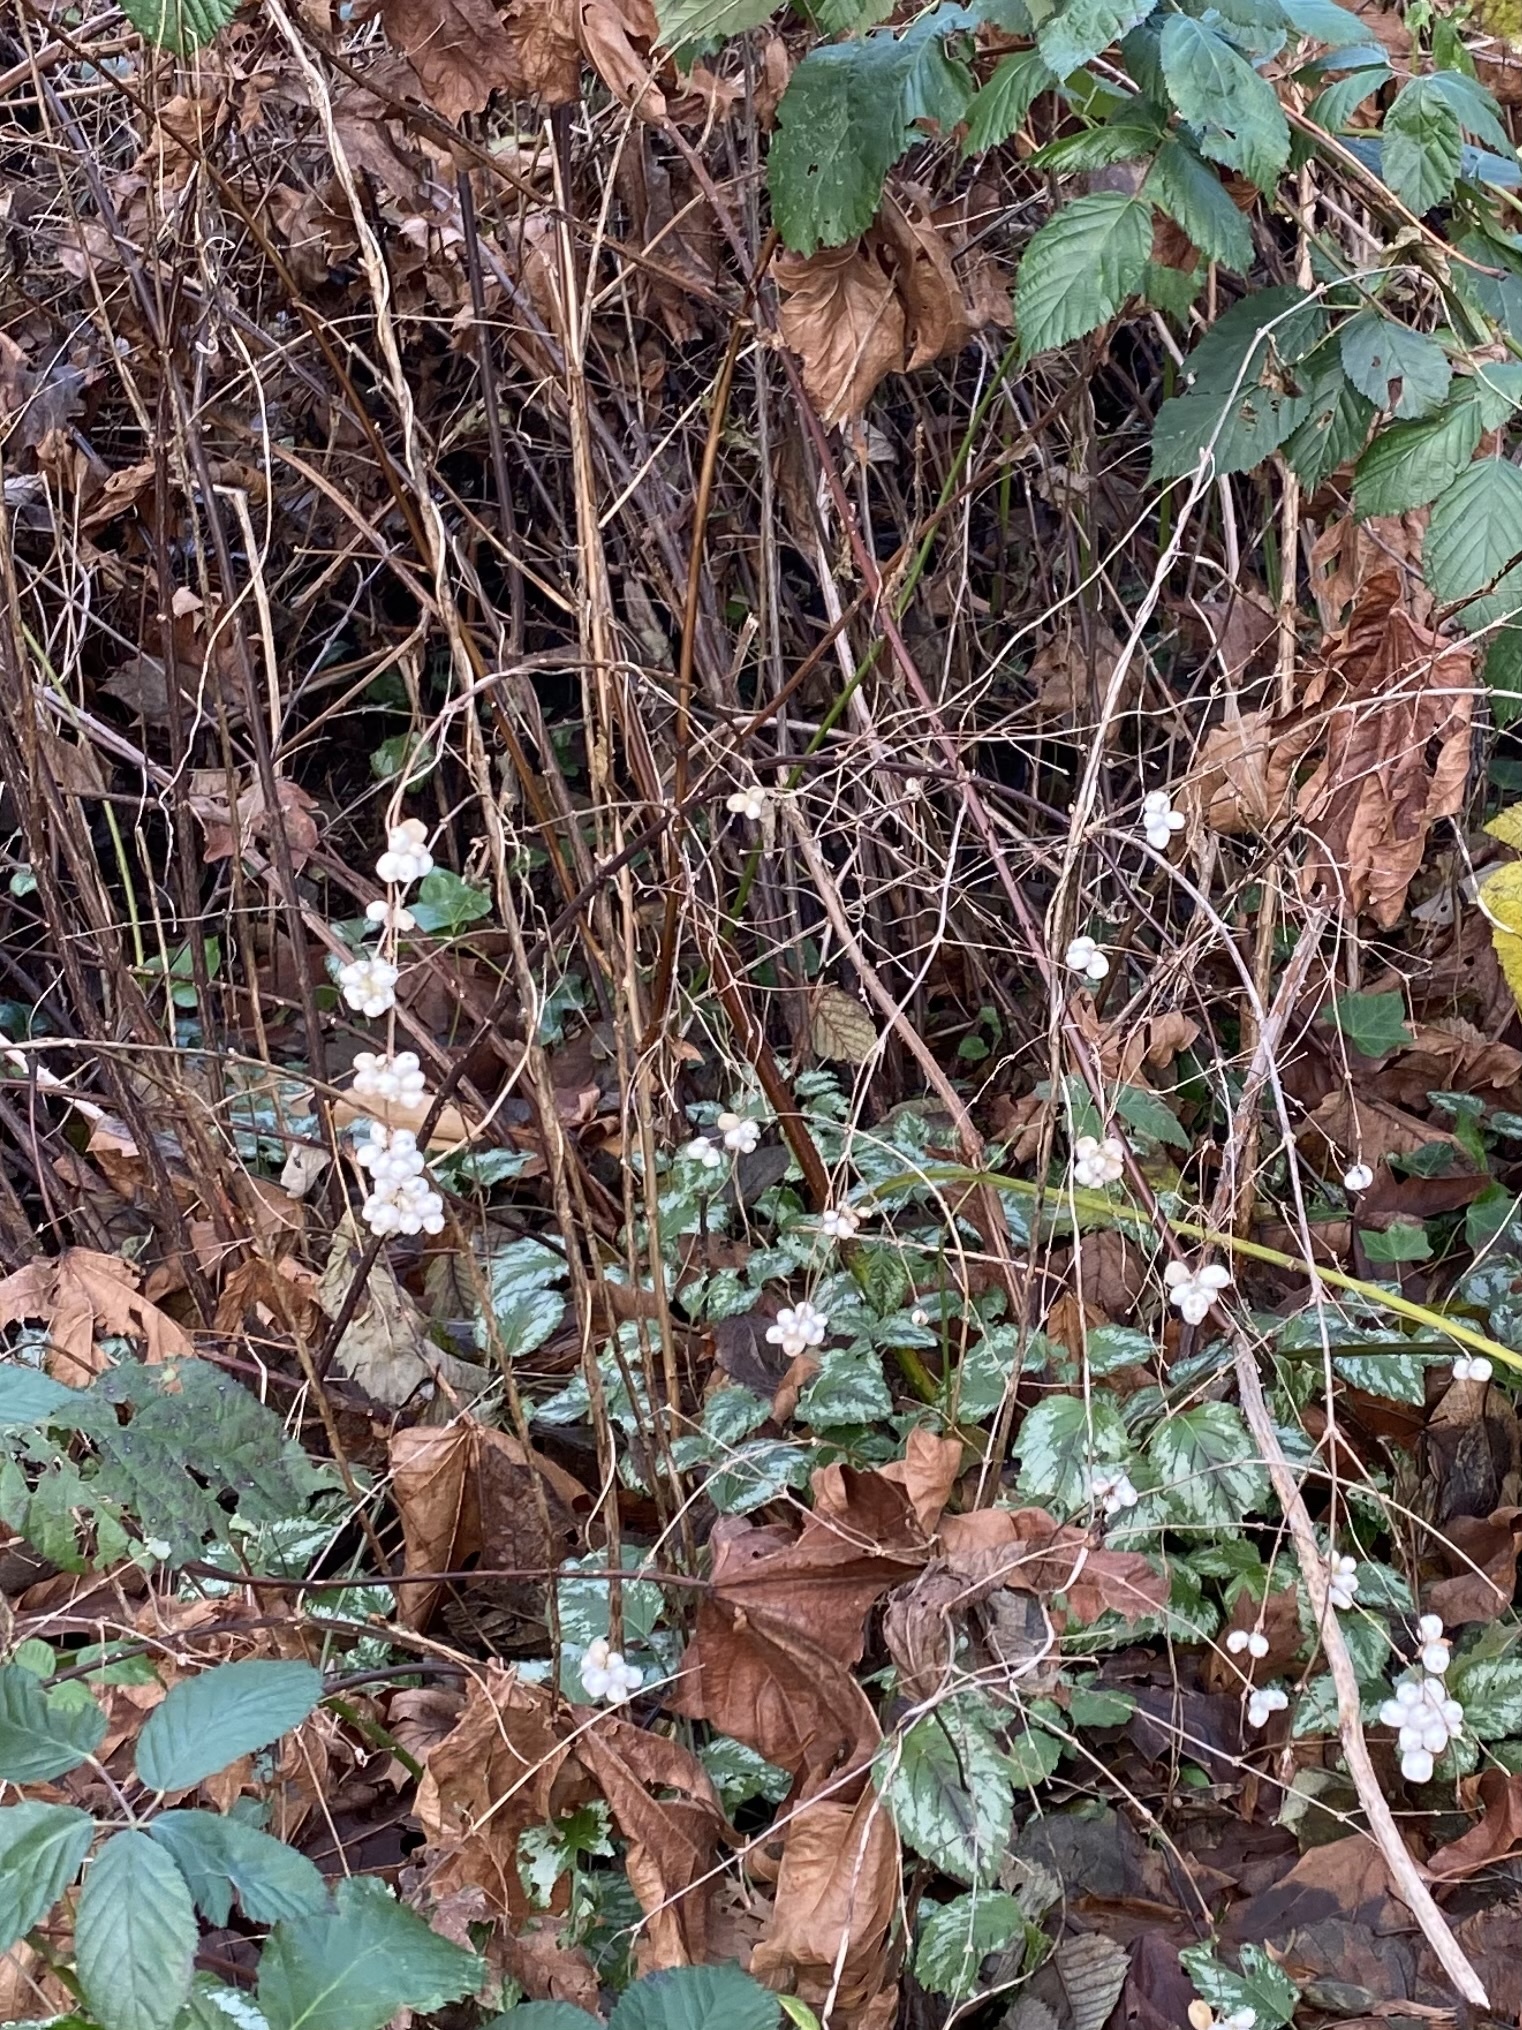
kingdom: Plantae
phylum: Tracheophyta
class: Magnoliopsida
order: Dipsacales
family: Caprifoliaceae
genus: Symphoricarpos
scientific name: Symphoricarpos albus
